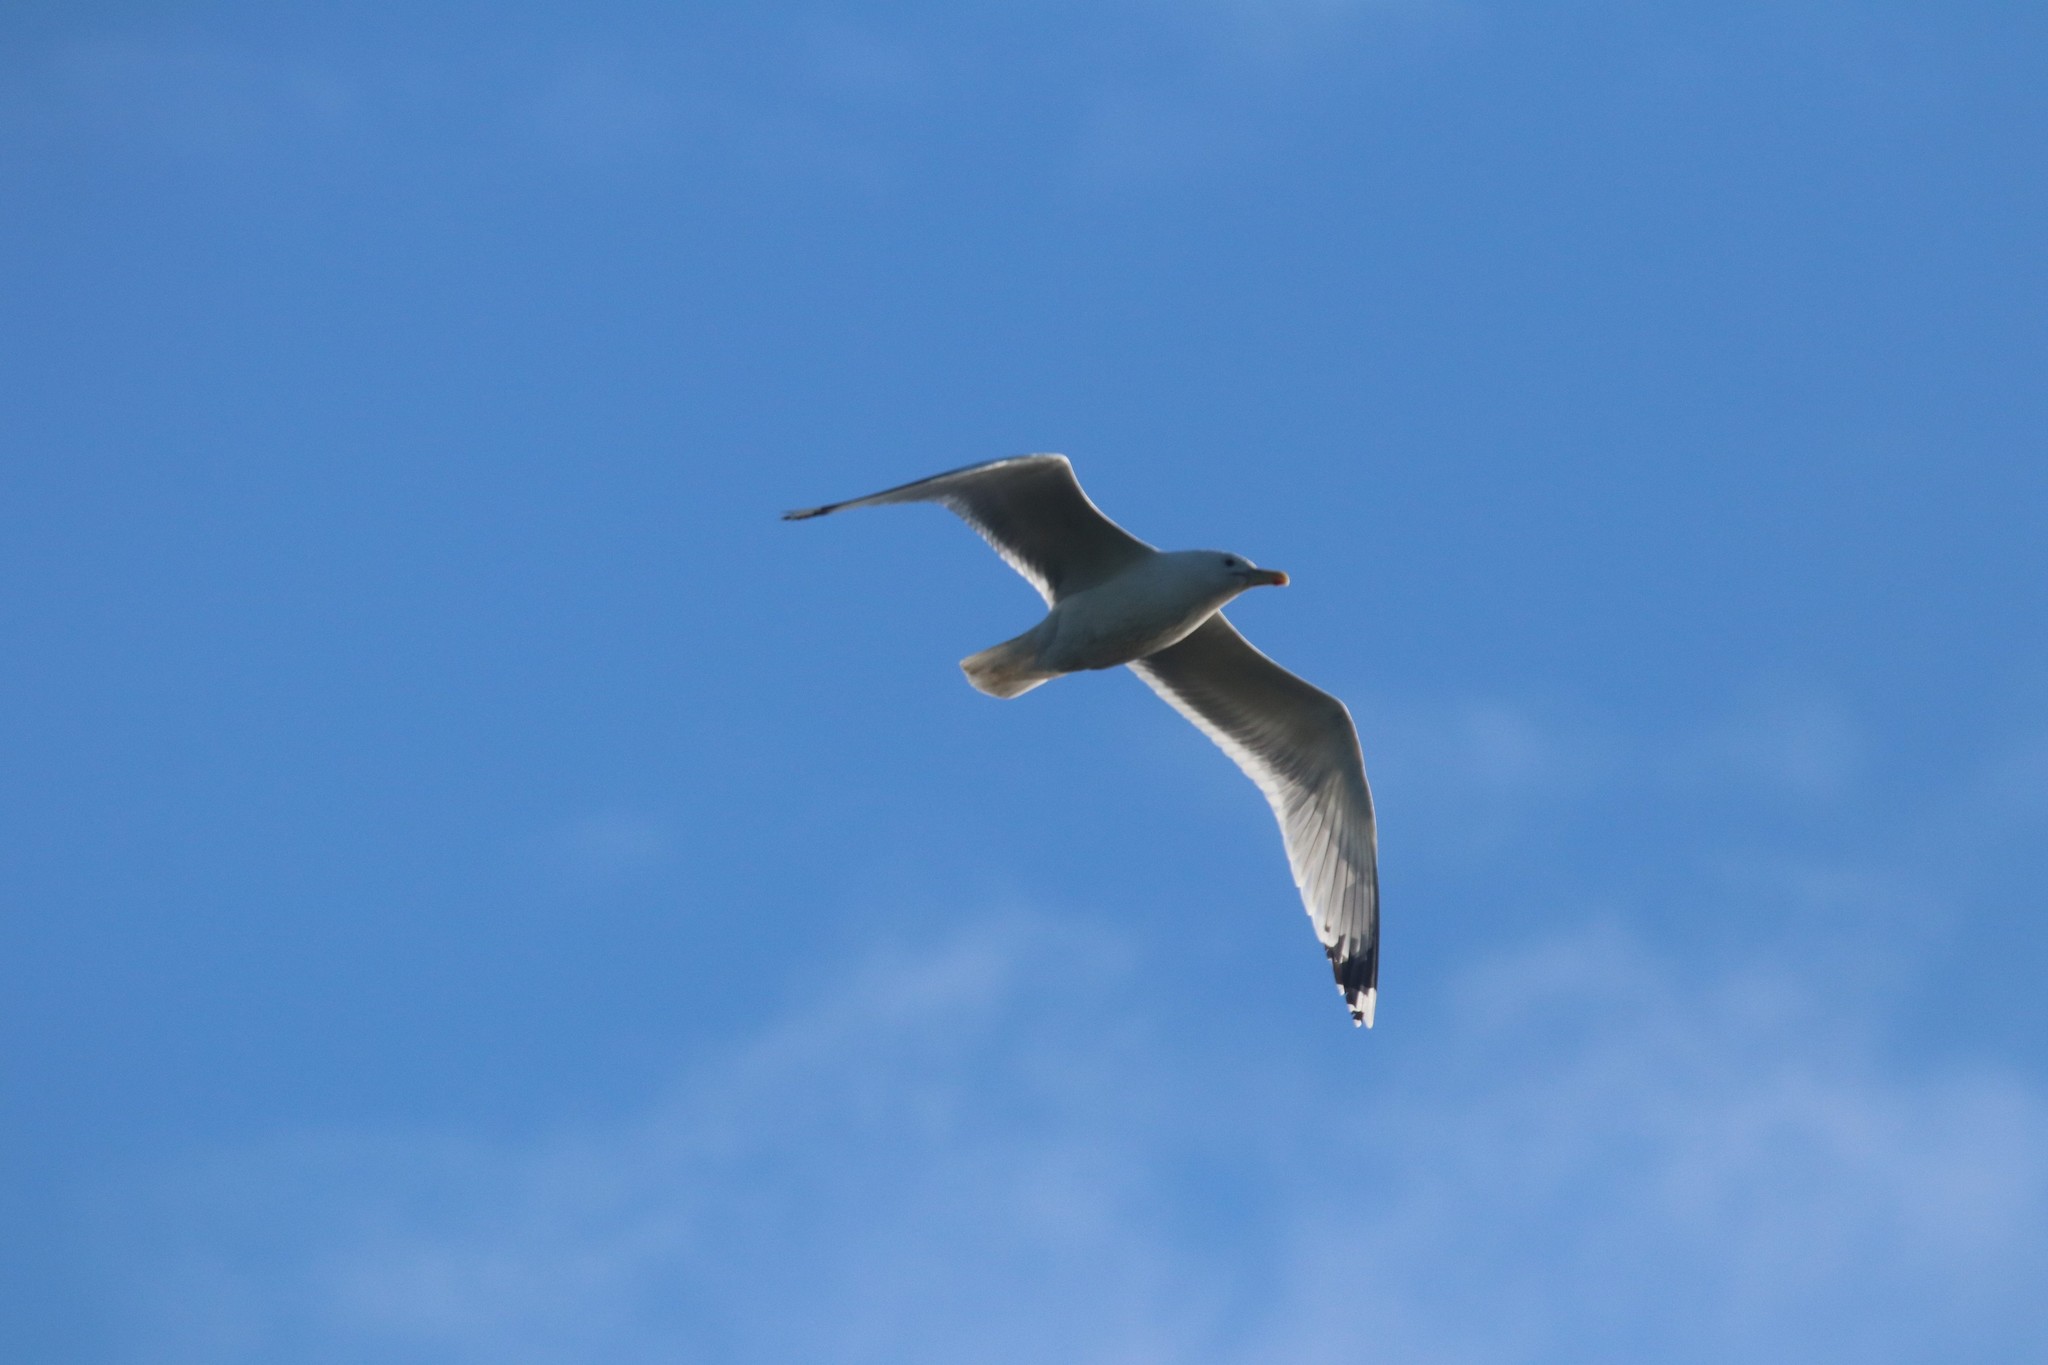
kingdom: Animalia
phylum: Chordata
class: Aves
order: Charadriiformes
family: Laridae
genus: Larus
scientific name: Larus cachinnans
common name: Caspian gull
